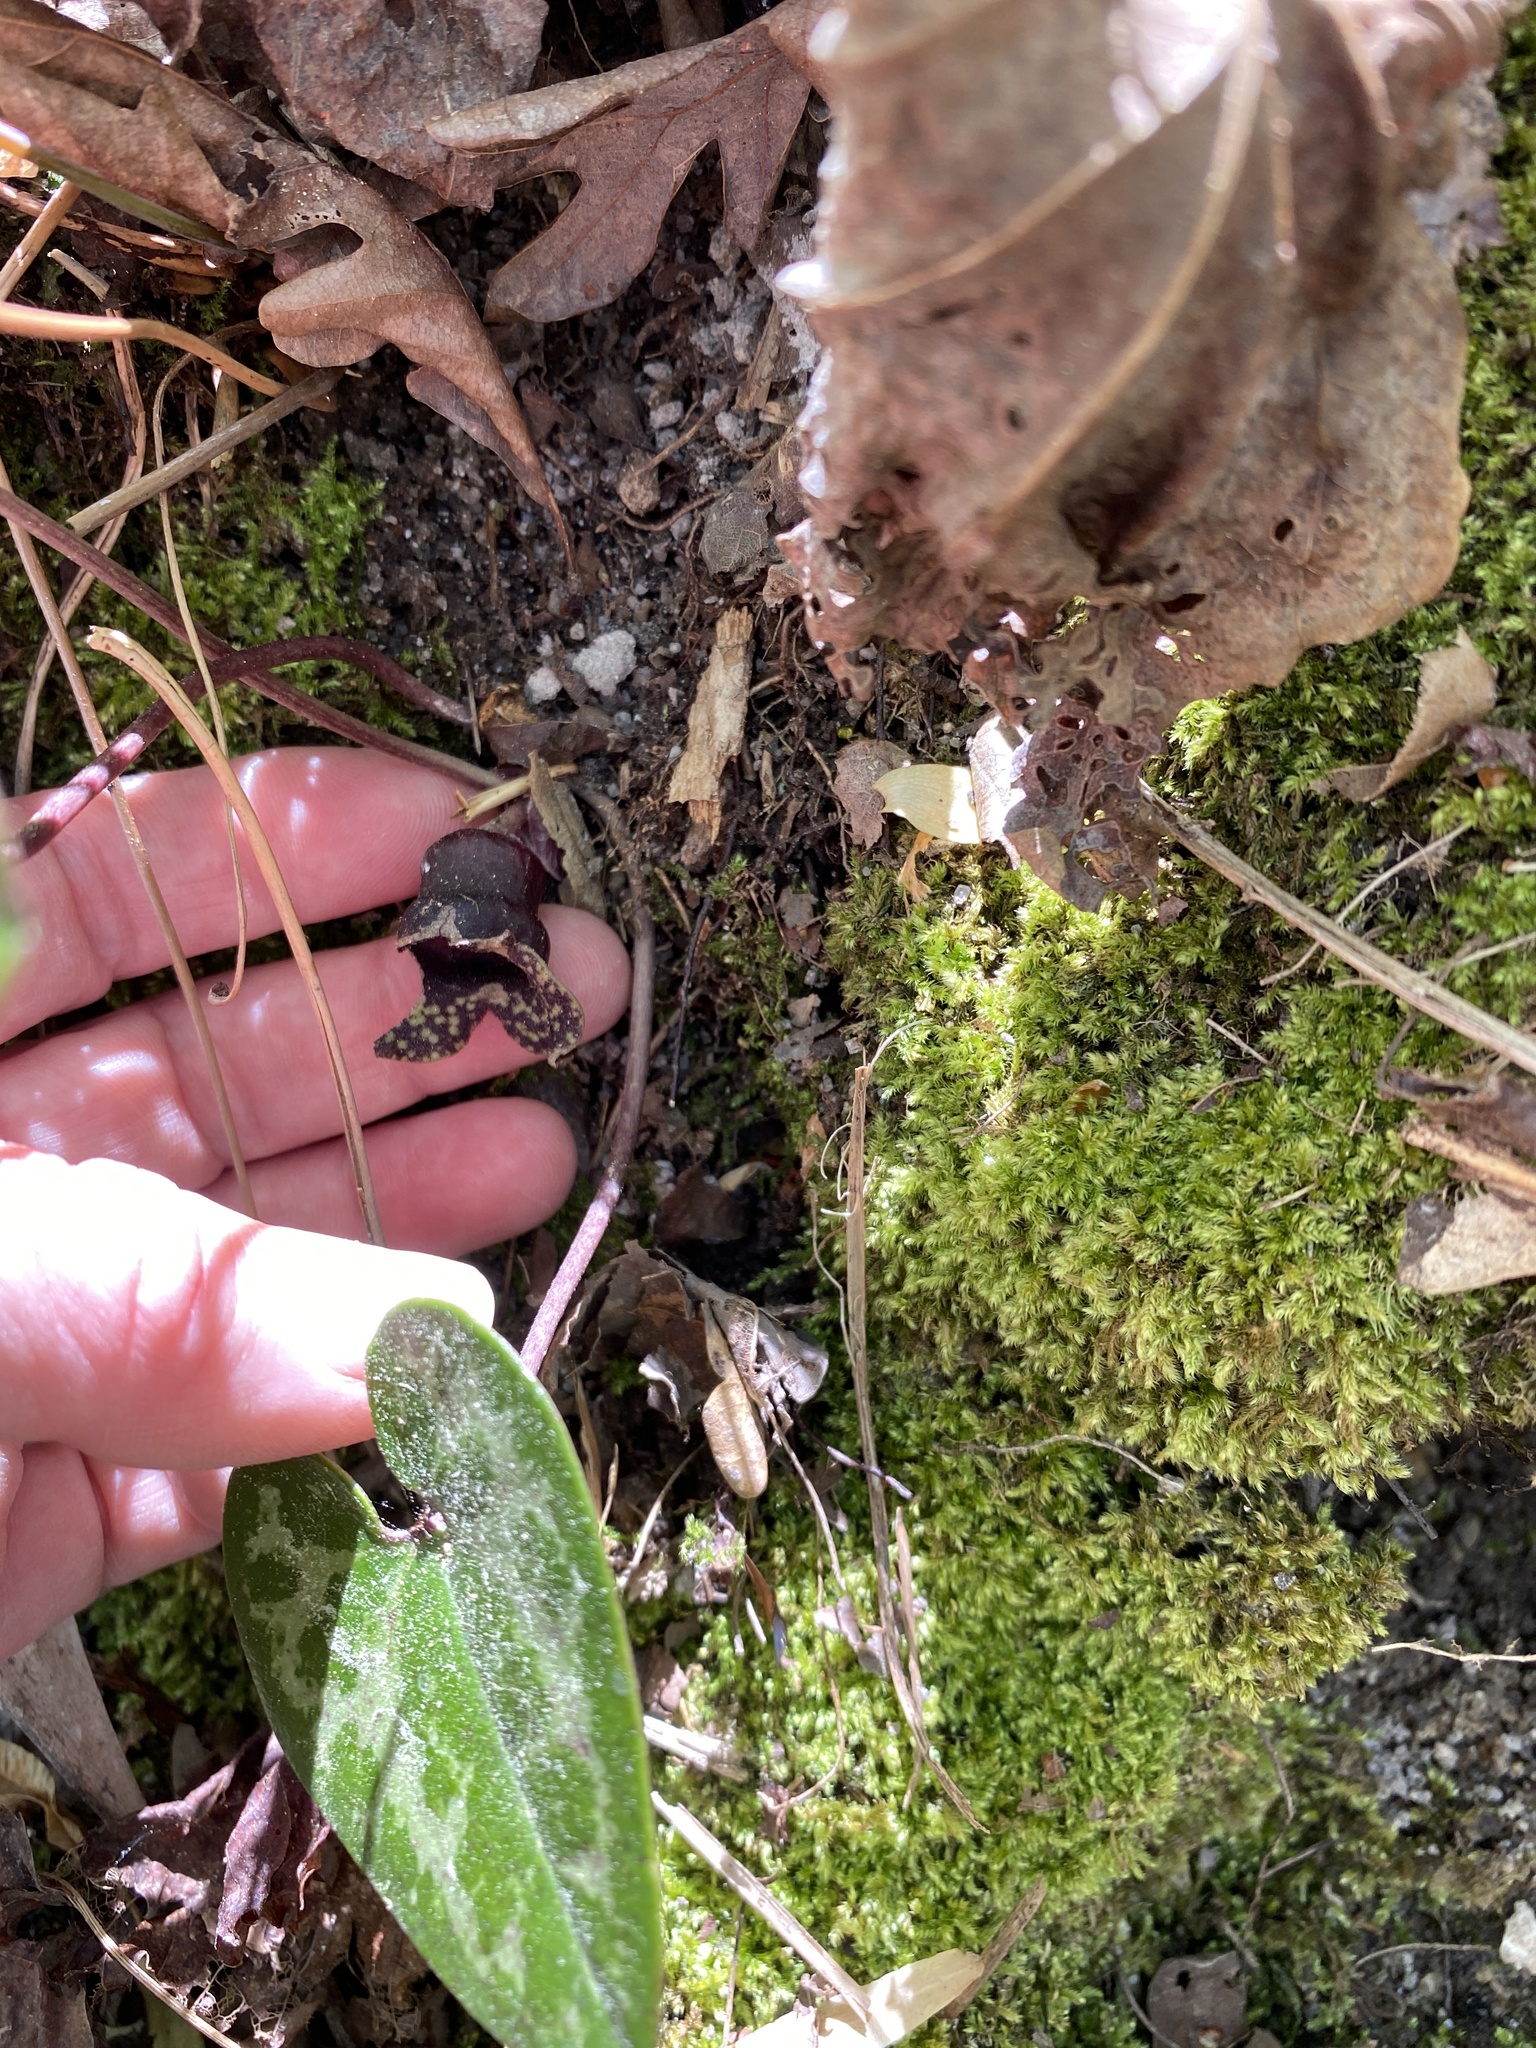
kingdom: Plantae
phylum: Tracheophyta
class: Magnoliopsida
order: Piperales
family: Aristolochiaceae
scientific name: Aristolochiaceae
